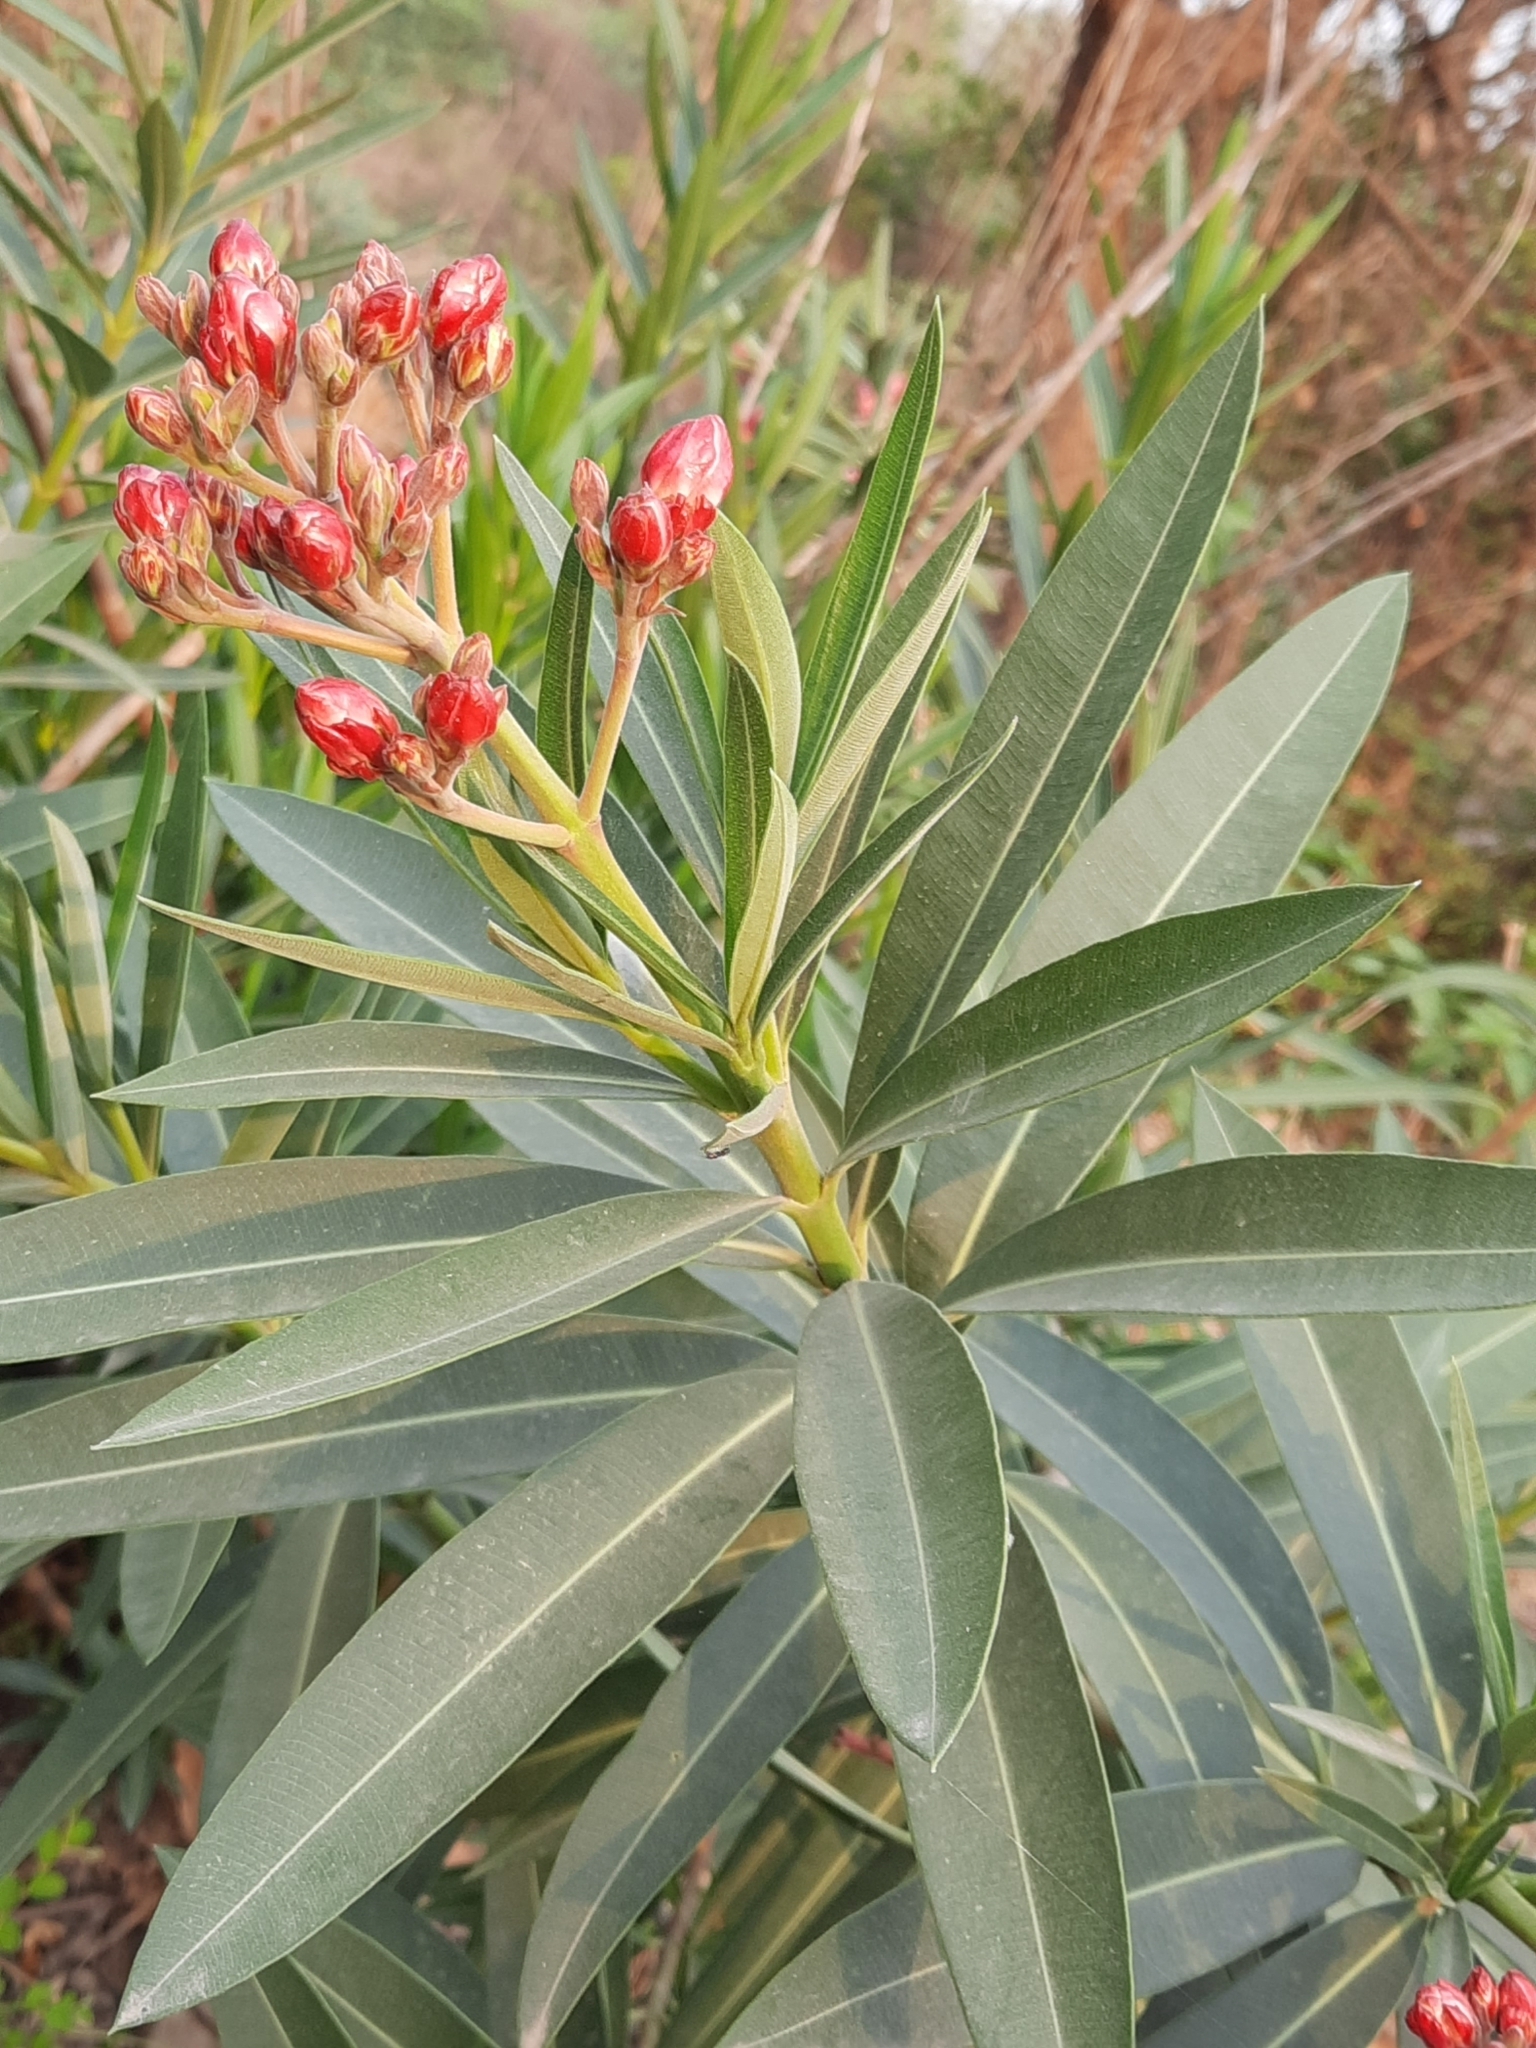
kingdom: Plantae
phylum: Tracheophyta
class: Magnoliopsida
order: Gentianales
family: Apocynaceae
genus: Nerium
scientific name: Nerium oleander
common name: Oleander
